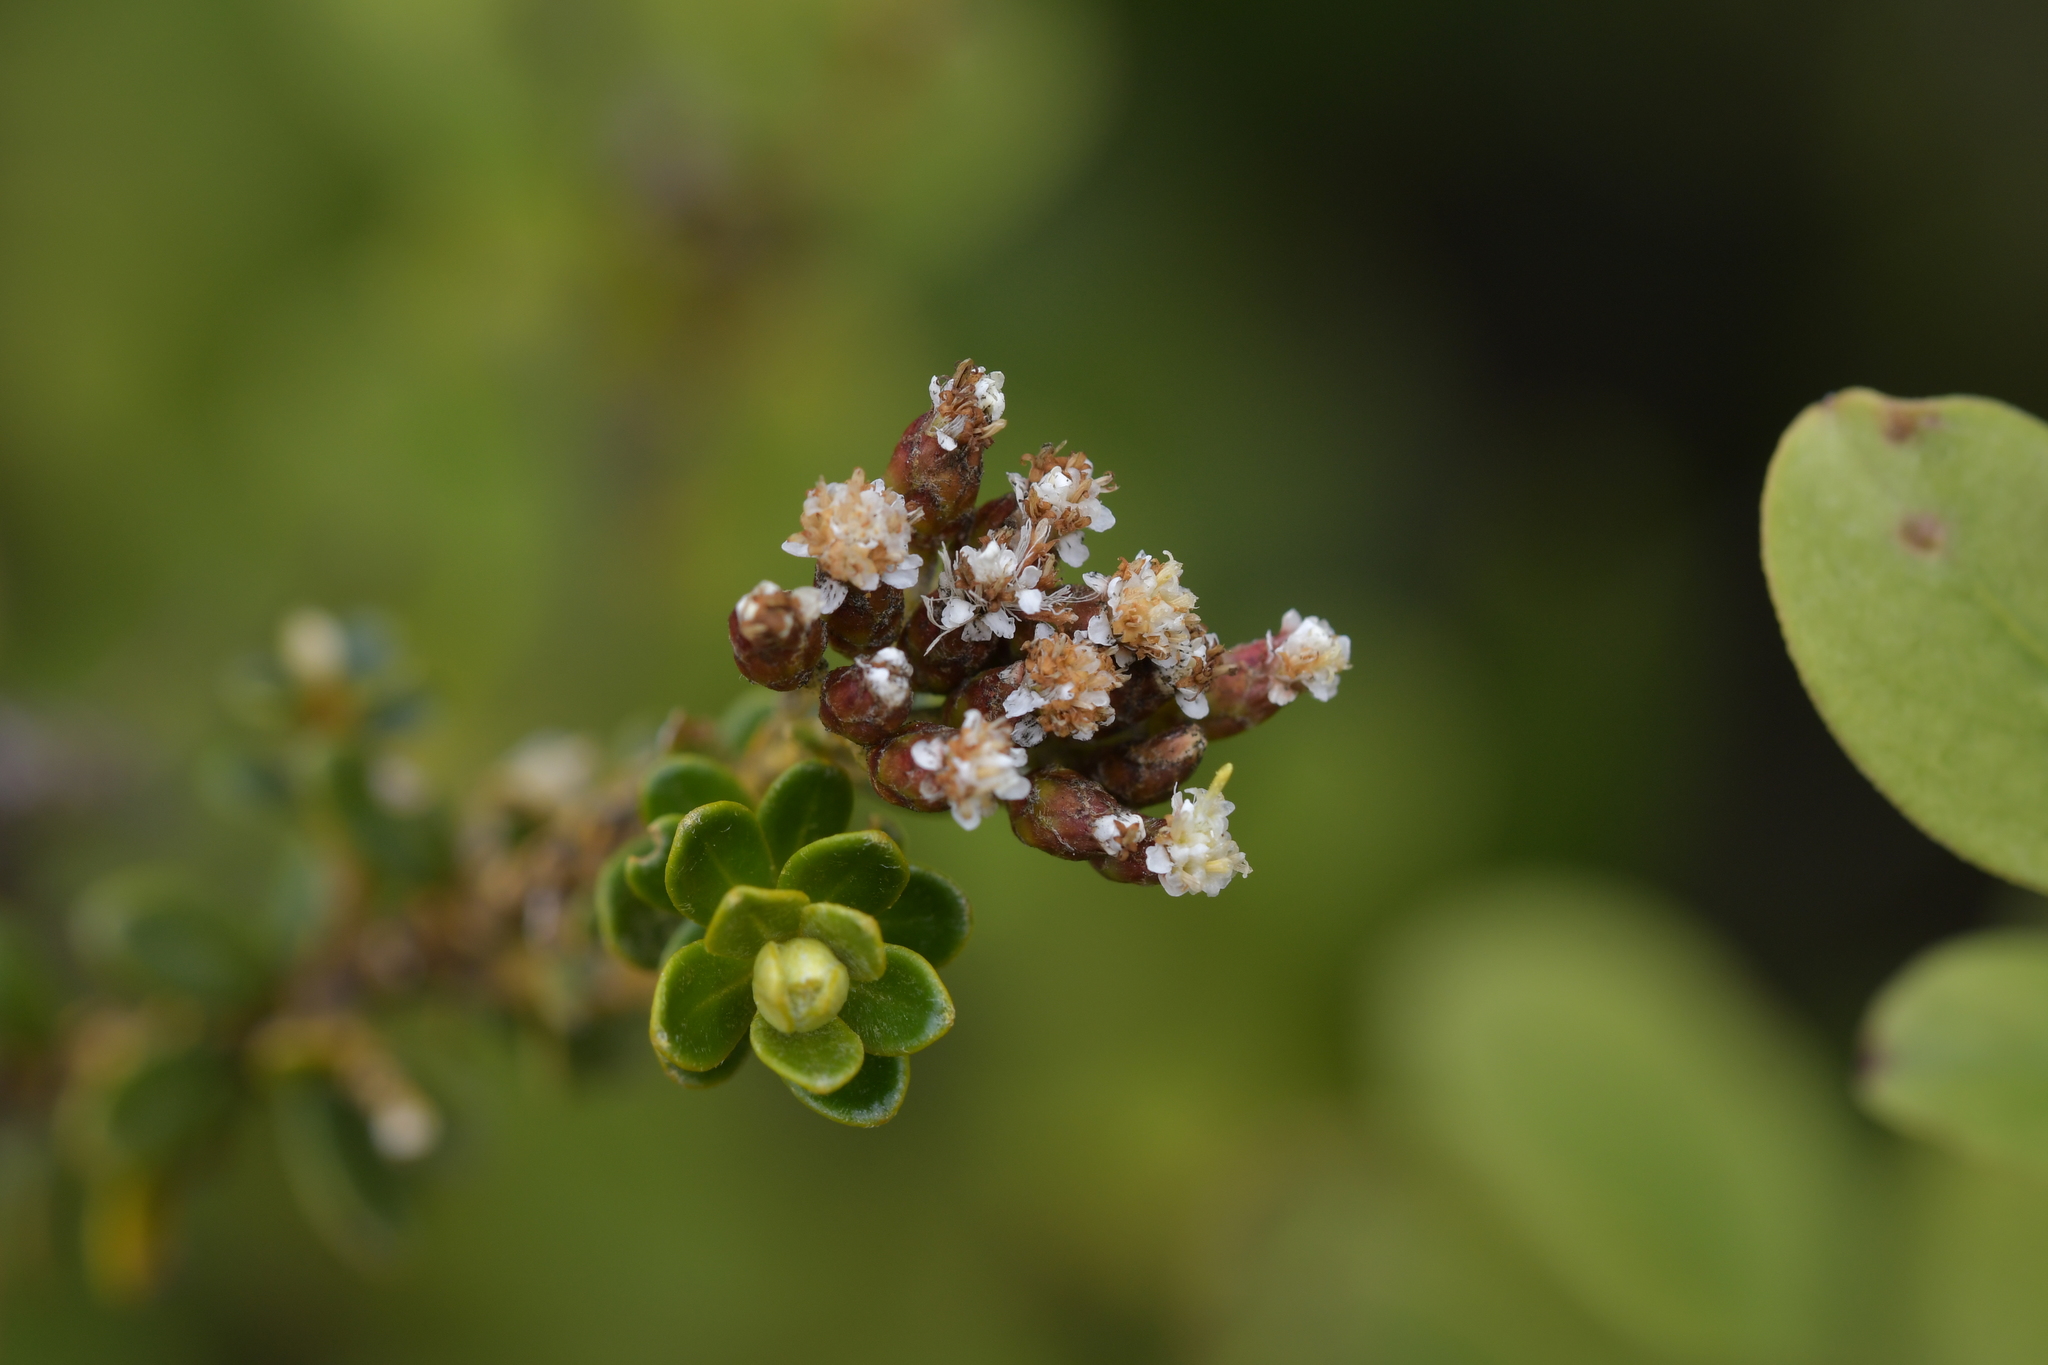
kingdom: Plantae
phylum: Tracheophyta
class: Magnoliopsida
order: Asterales
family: Asteraceae
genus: Ozothamnus
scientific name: Ozothamnus leptophyllus
